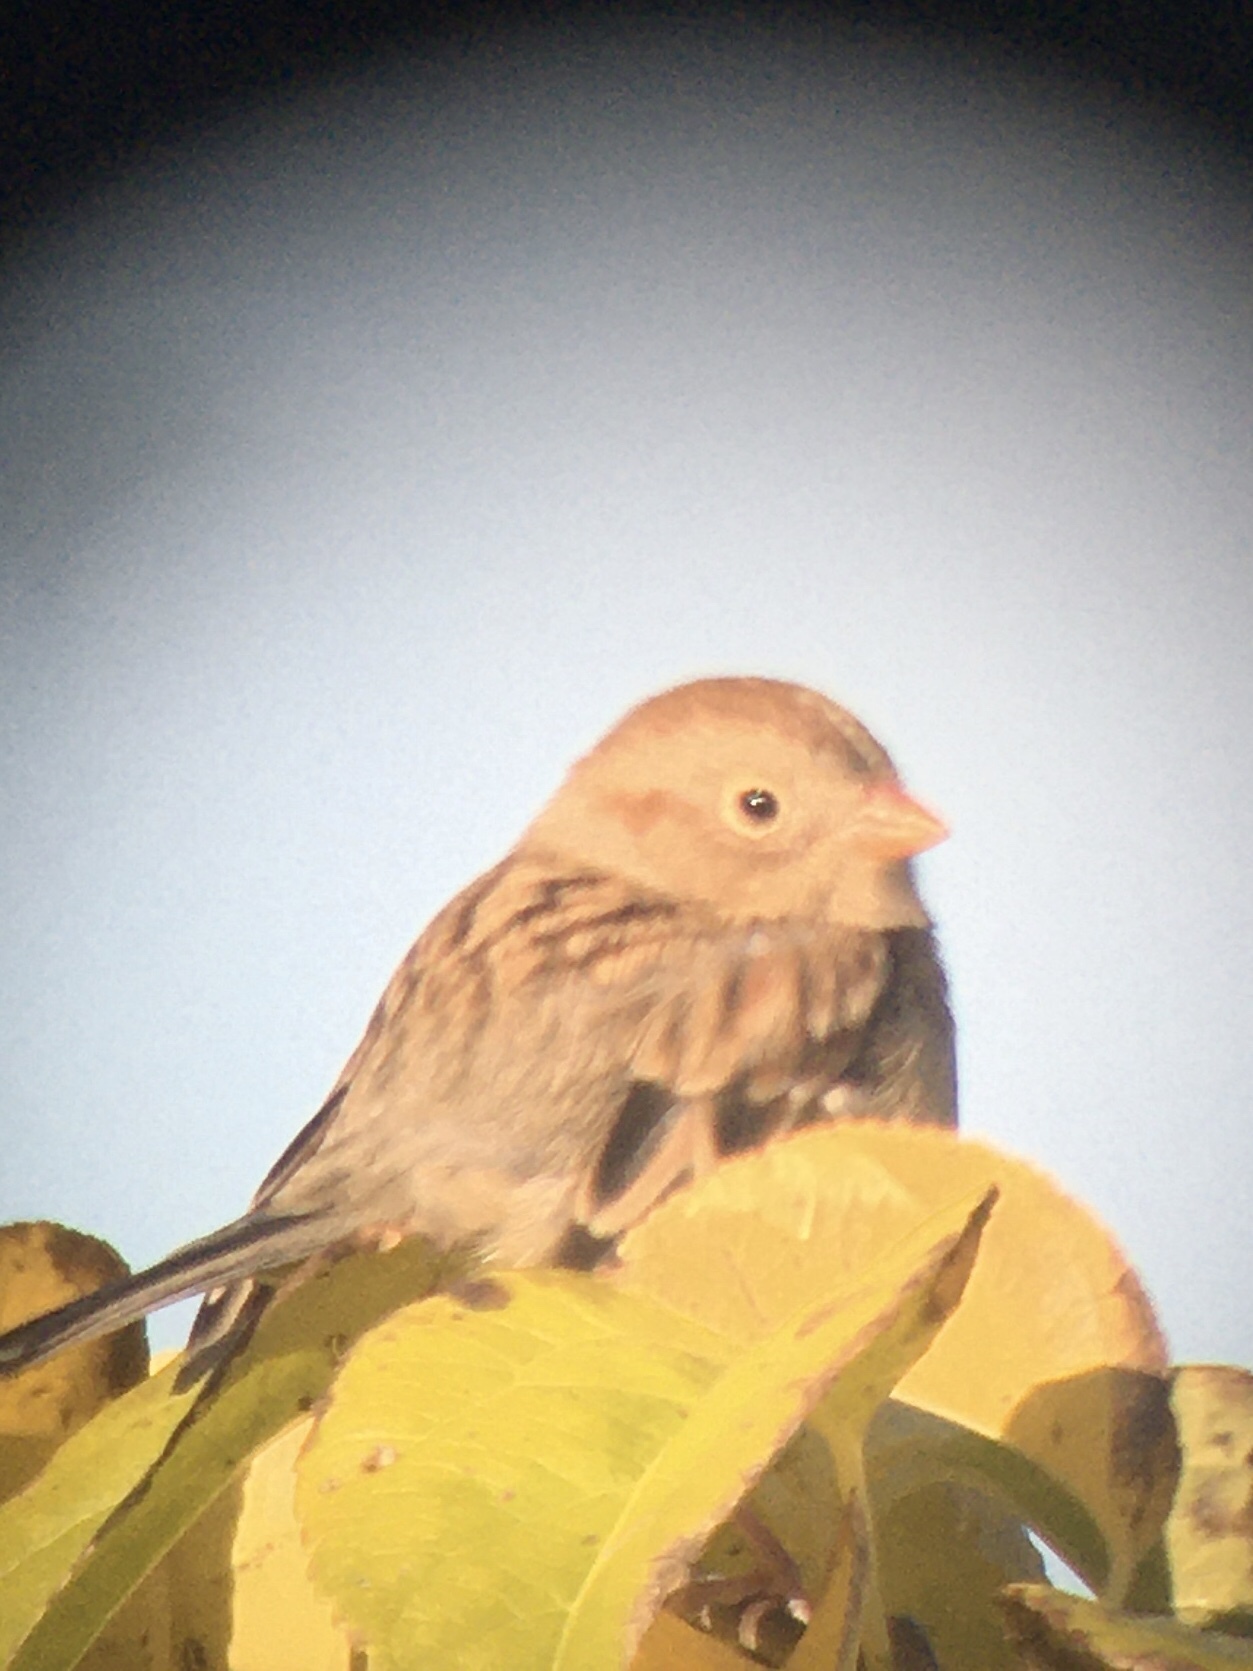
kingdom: Animalia
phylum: Chordata
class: Aves
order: Passeriformes
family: Passerellidae
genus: Spizella
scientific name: Spizella pusilla
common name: Field sparrow
